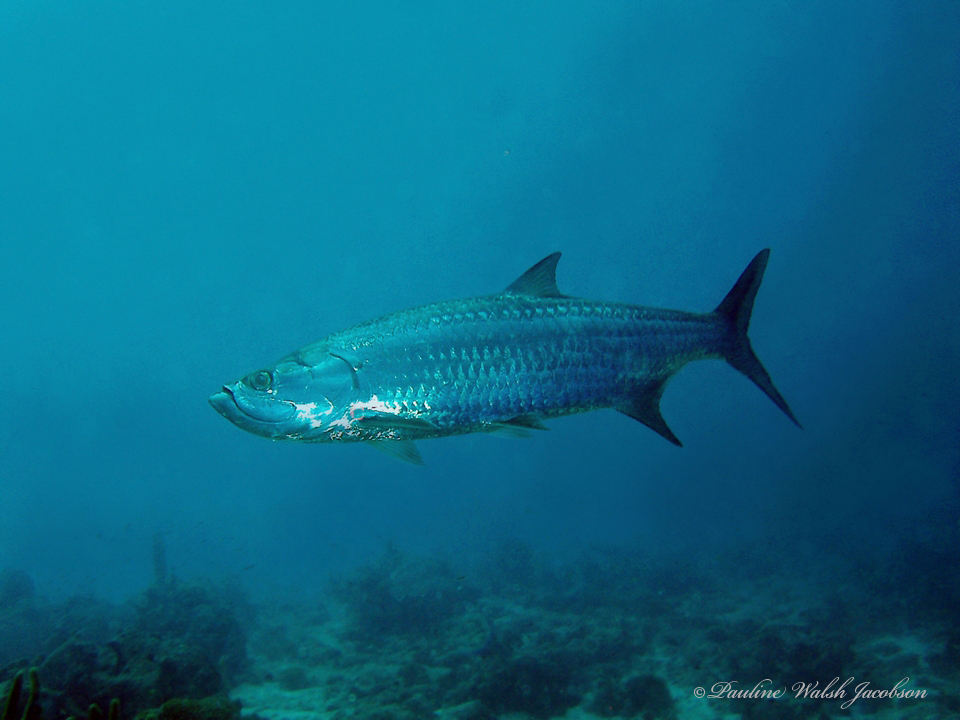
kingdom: Animalia
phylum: Chordata
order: Elopiformes
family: Megalopidae
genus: Megalops
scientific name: Megalops atlanticus
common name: Tarpon
